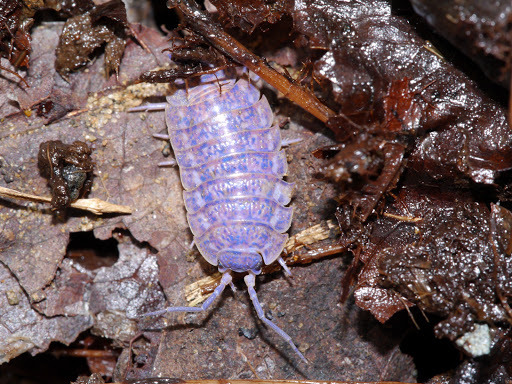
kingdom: Viruses
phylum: Nucleocytoviricota
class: Megaviricetes
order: Pimascovirales
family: Iridoviridae
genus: Iridovirus
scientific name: Iridovirus Invertebrate iridescent virus 31
